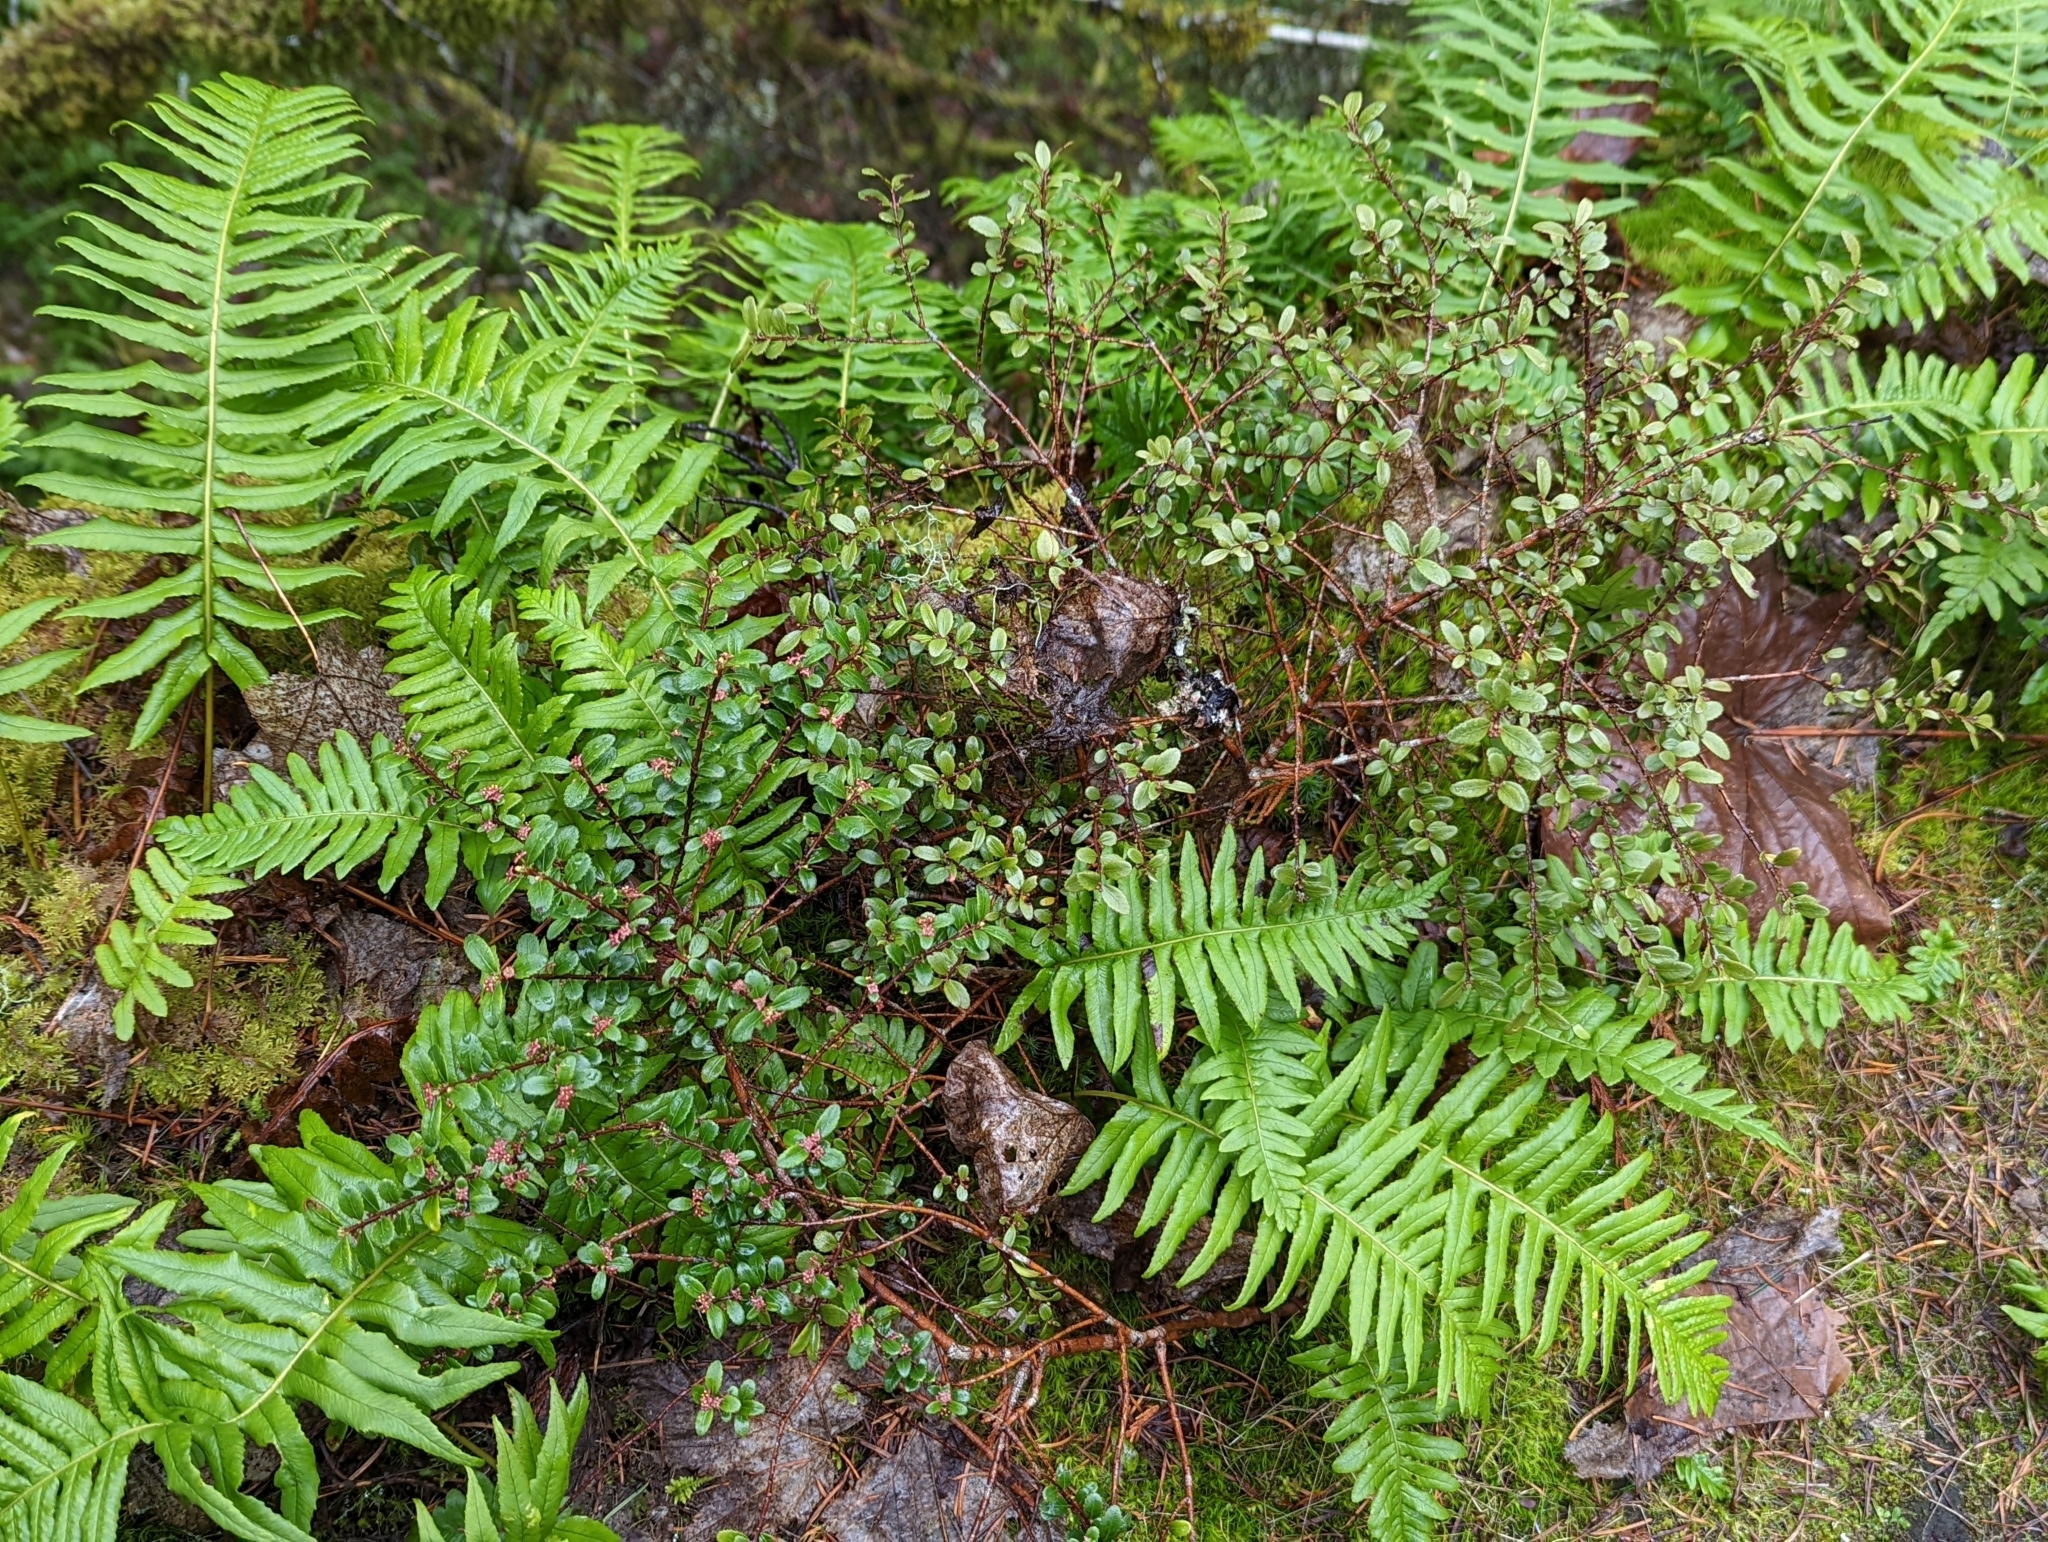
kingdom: Plantae
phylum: Tracheophyta
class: Magnoliopsida
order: Celastrales
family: Celastraceae
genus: Paxistima
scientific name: Paxistima myrsinites
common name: Mountain-lover
